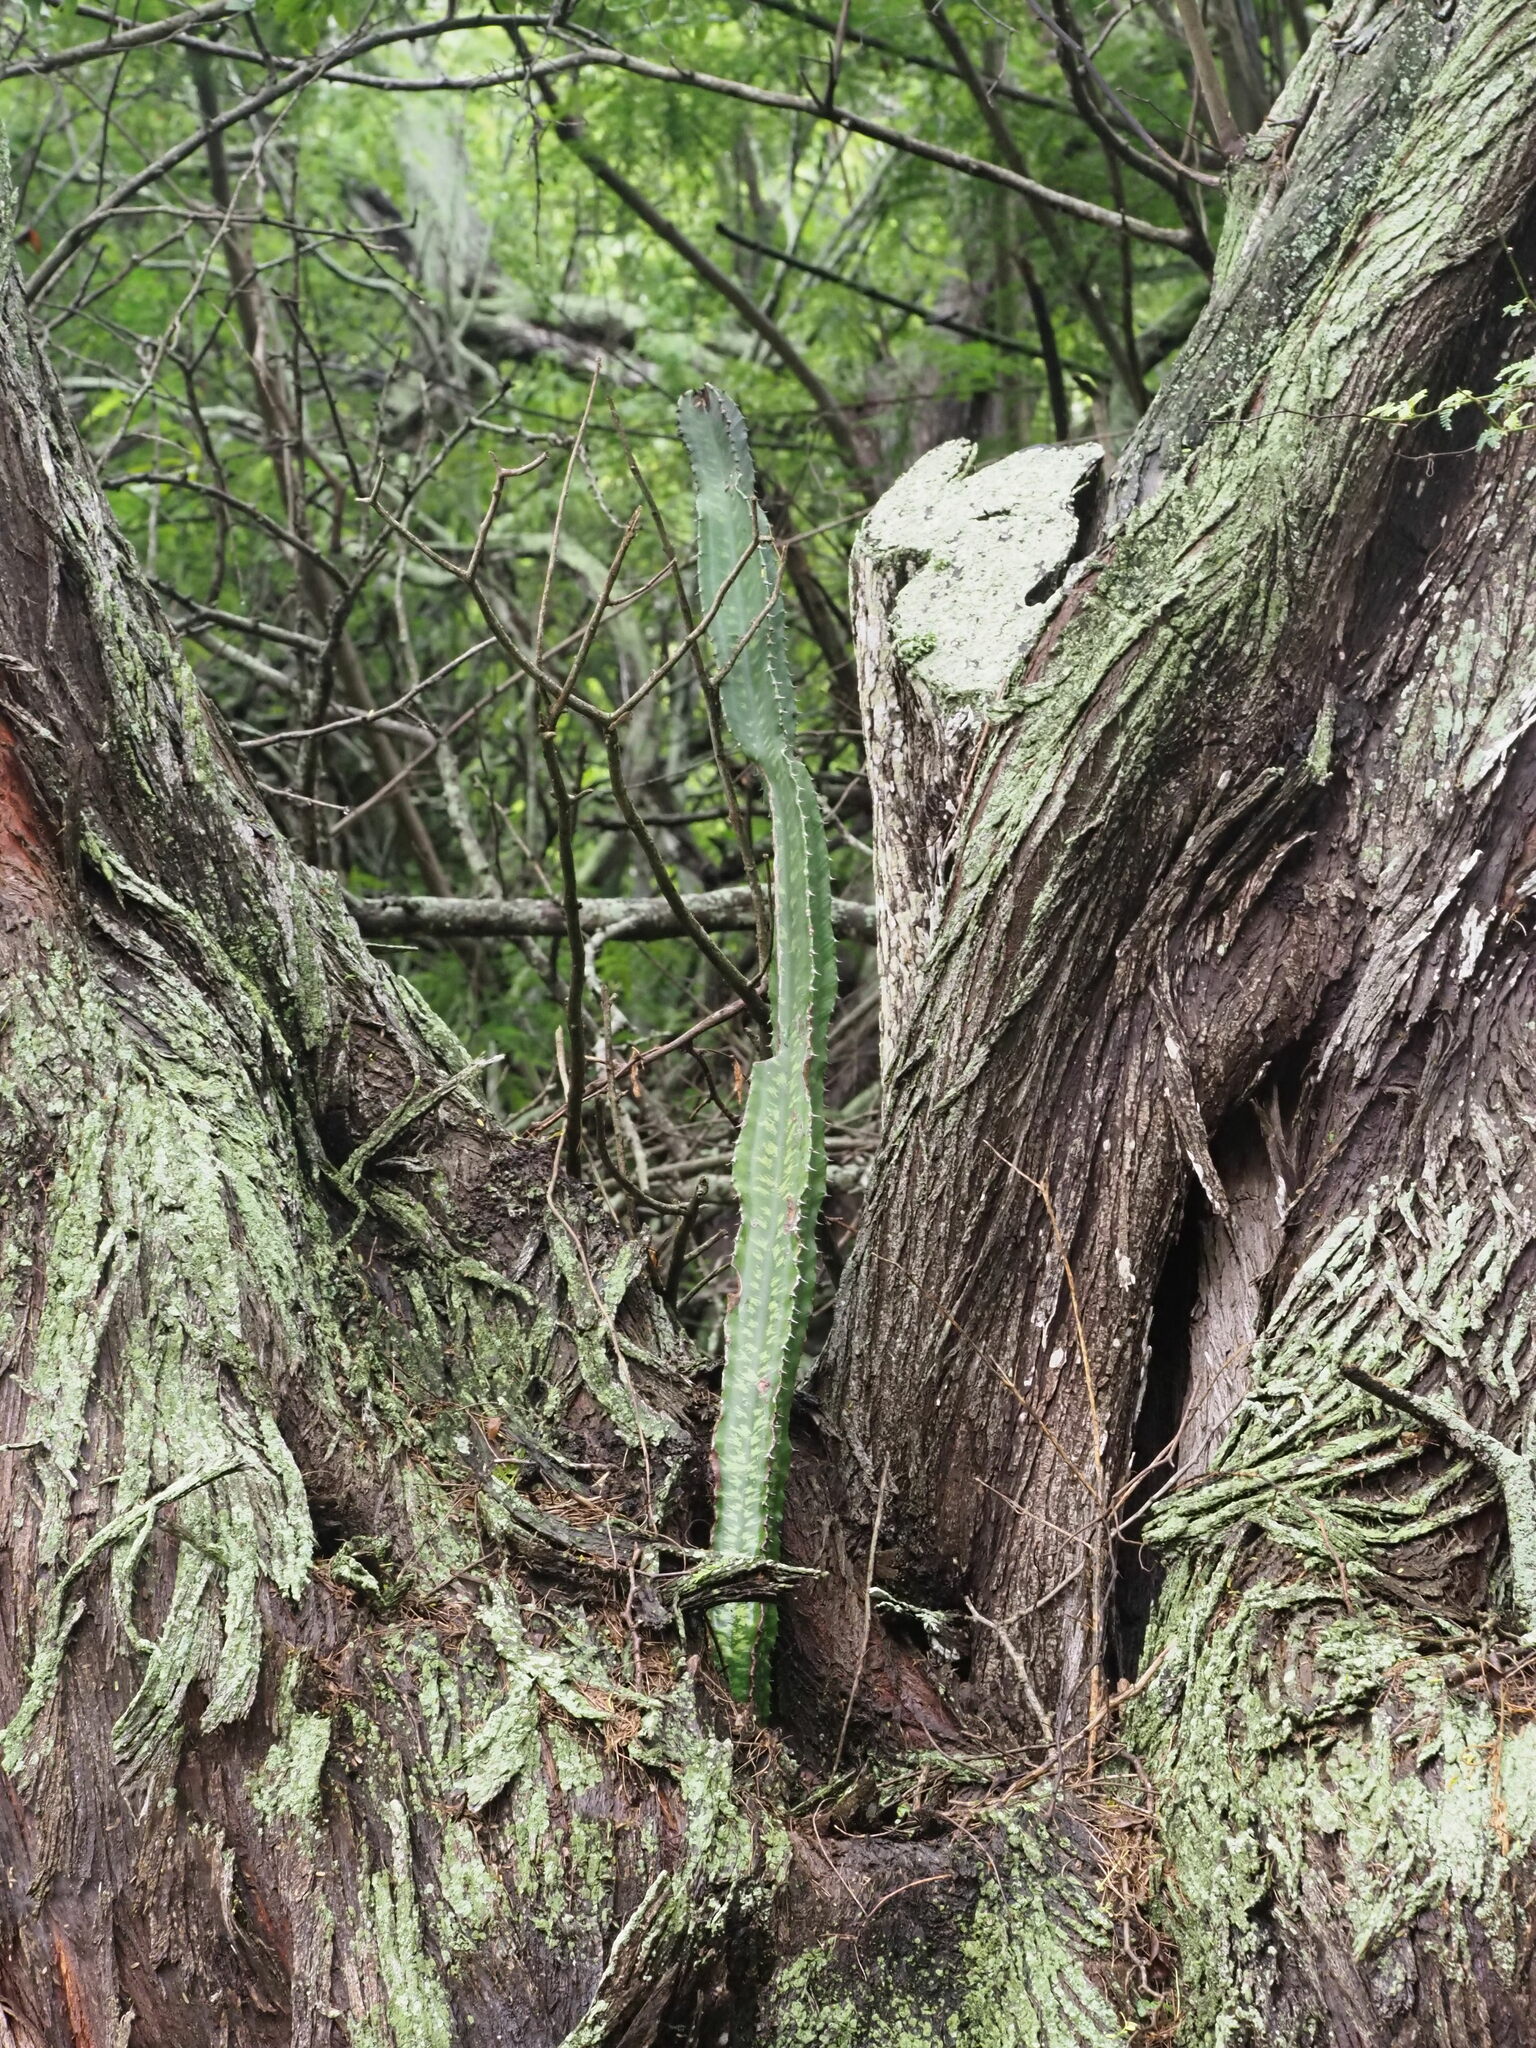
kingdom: Plantae
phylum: Tracheophyta
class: Magnoliopsida
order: Malpighiales
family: Euphorbiaceae
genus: Euphorbia
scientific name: Euphorbia ingens
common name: Cactus spurge
